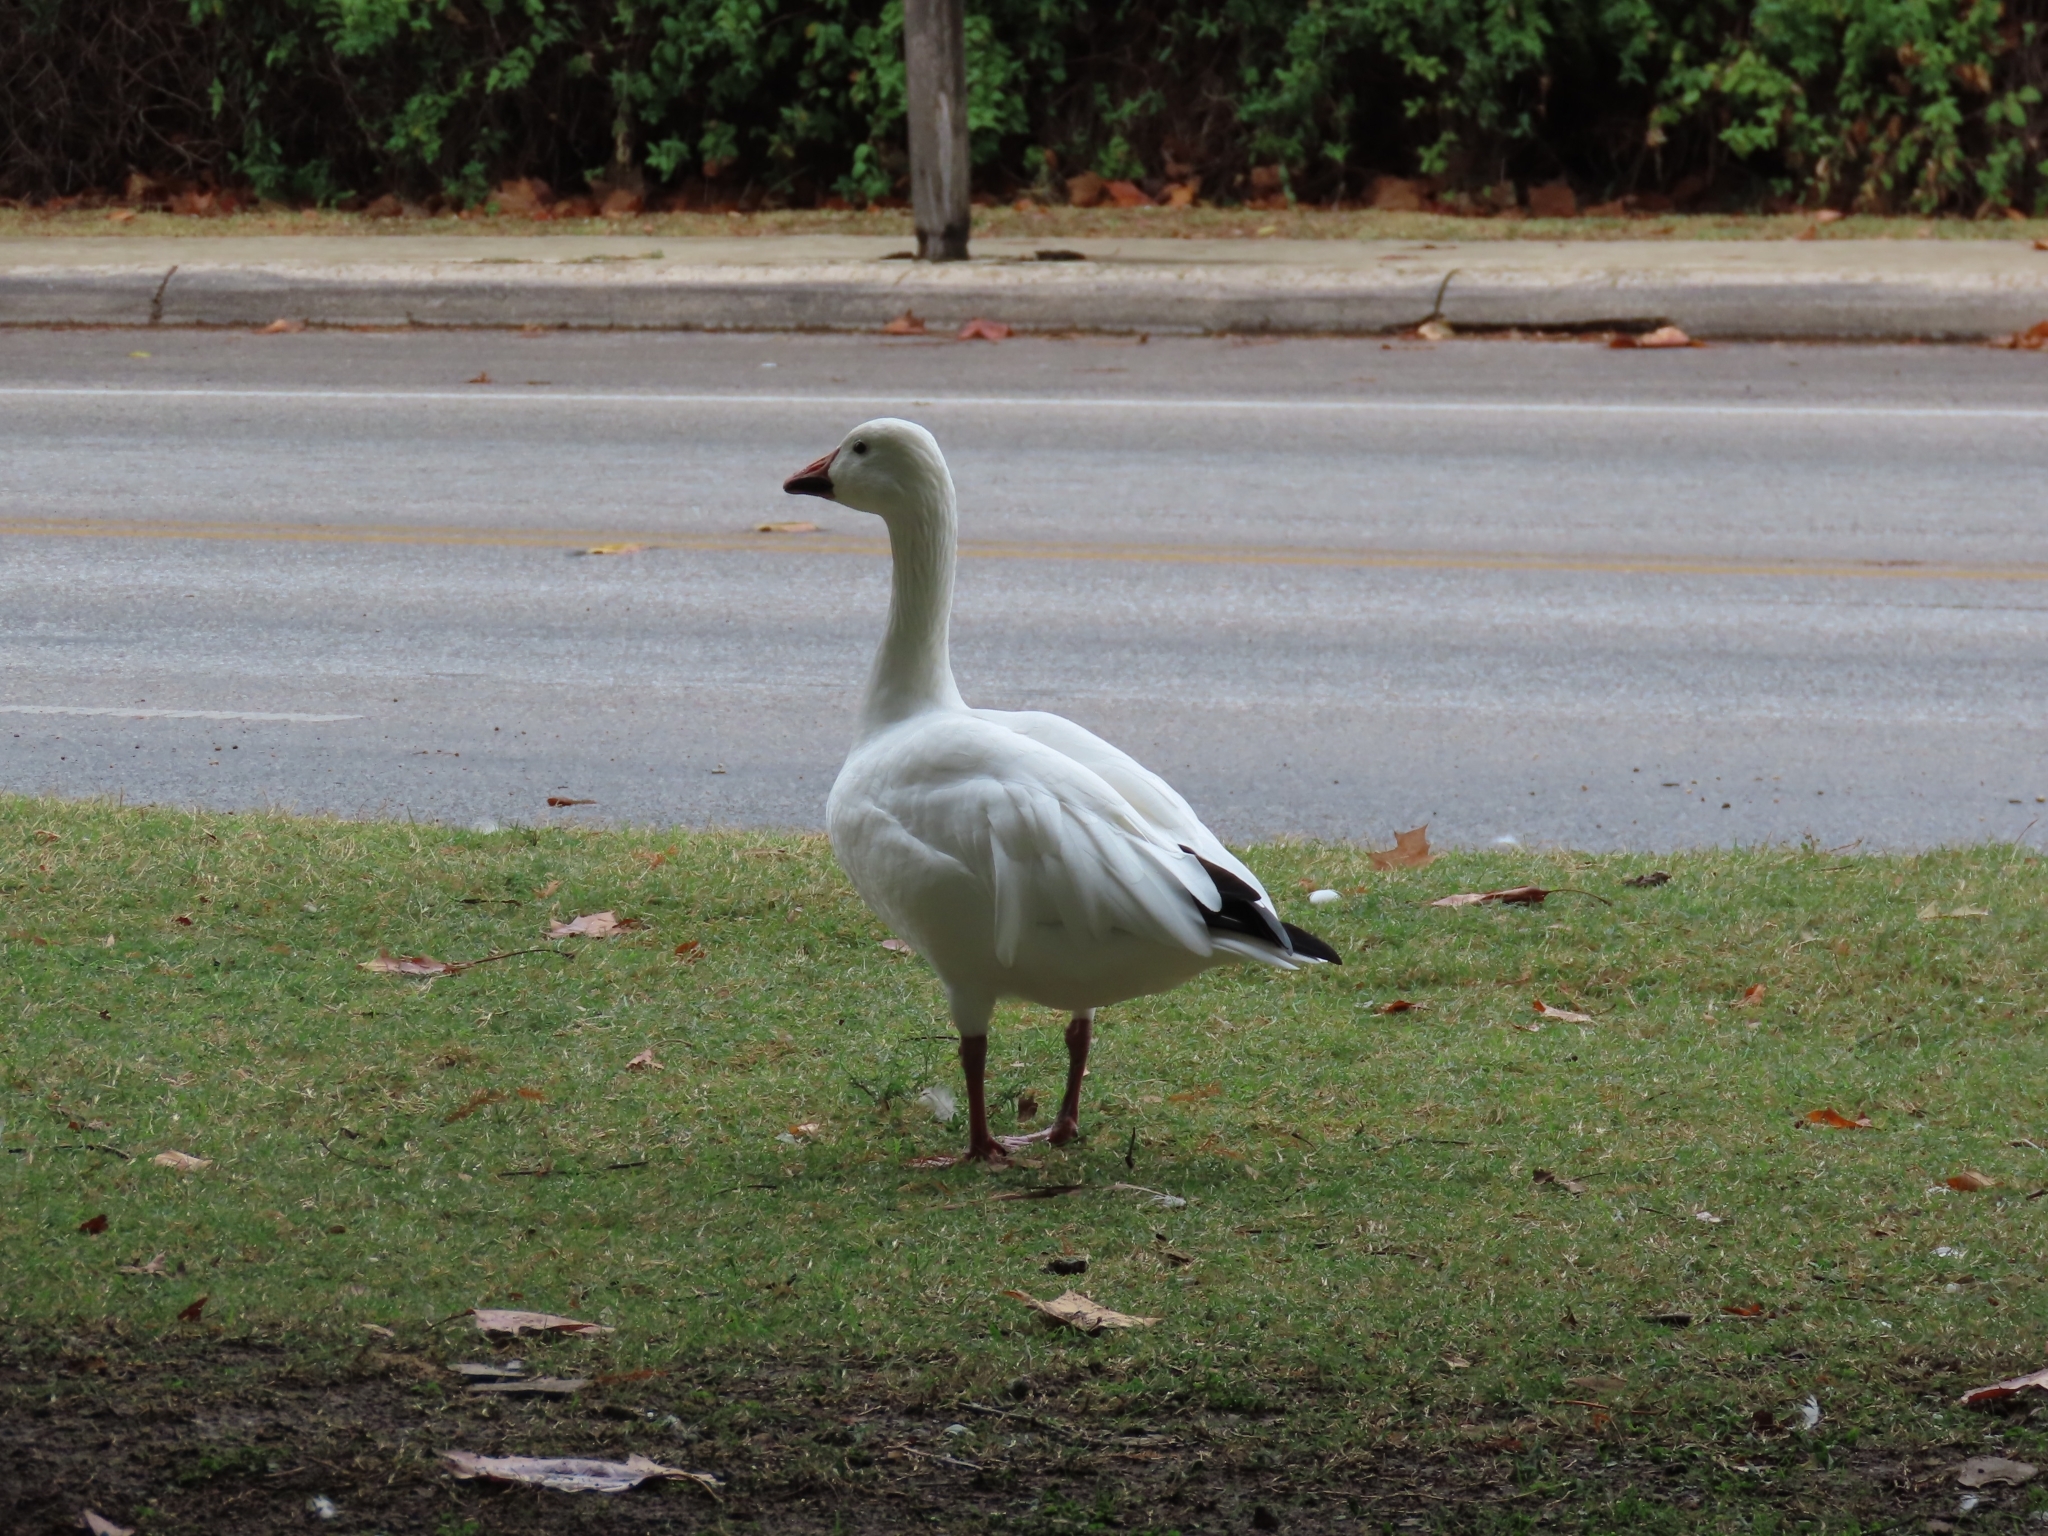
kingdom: Animalia
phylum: Chordata
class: Aves
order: Anseriformes
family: Anatidae
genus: Anser
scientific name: Anser caerulescens
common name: Snow goose
